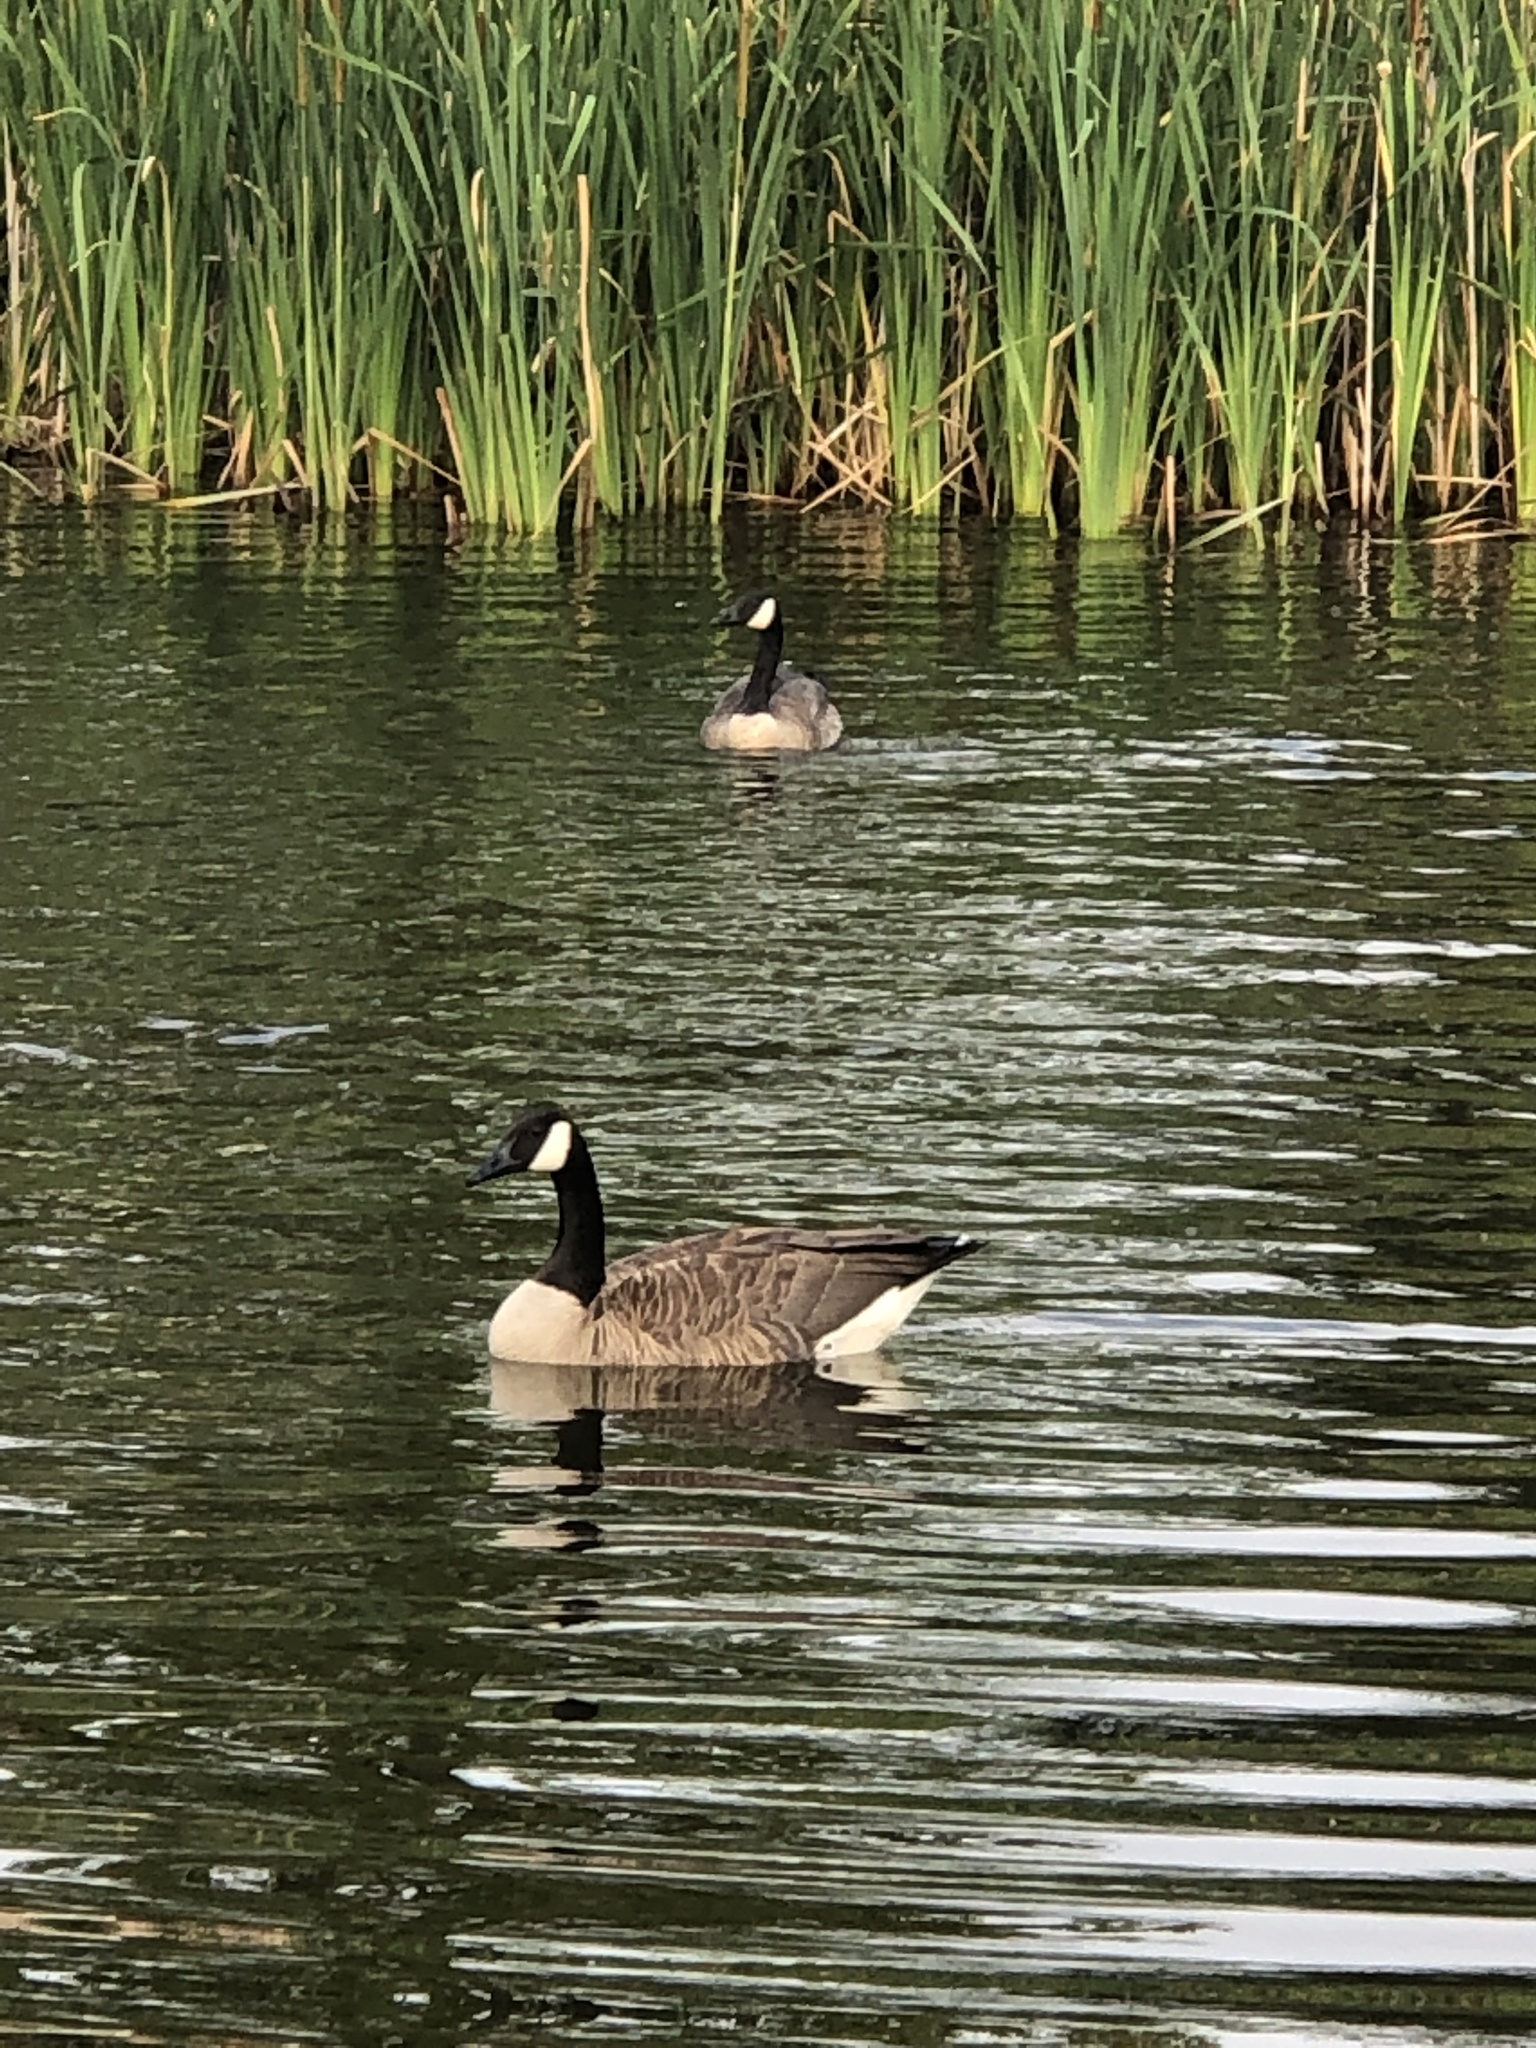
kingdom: Animalia
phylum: Chordata
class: Aves
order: Anseriformes
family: Anatidae
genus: Branta
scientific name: Branta canadensis
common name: Canada goose
